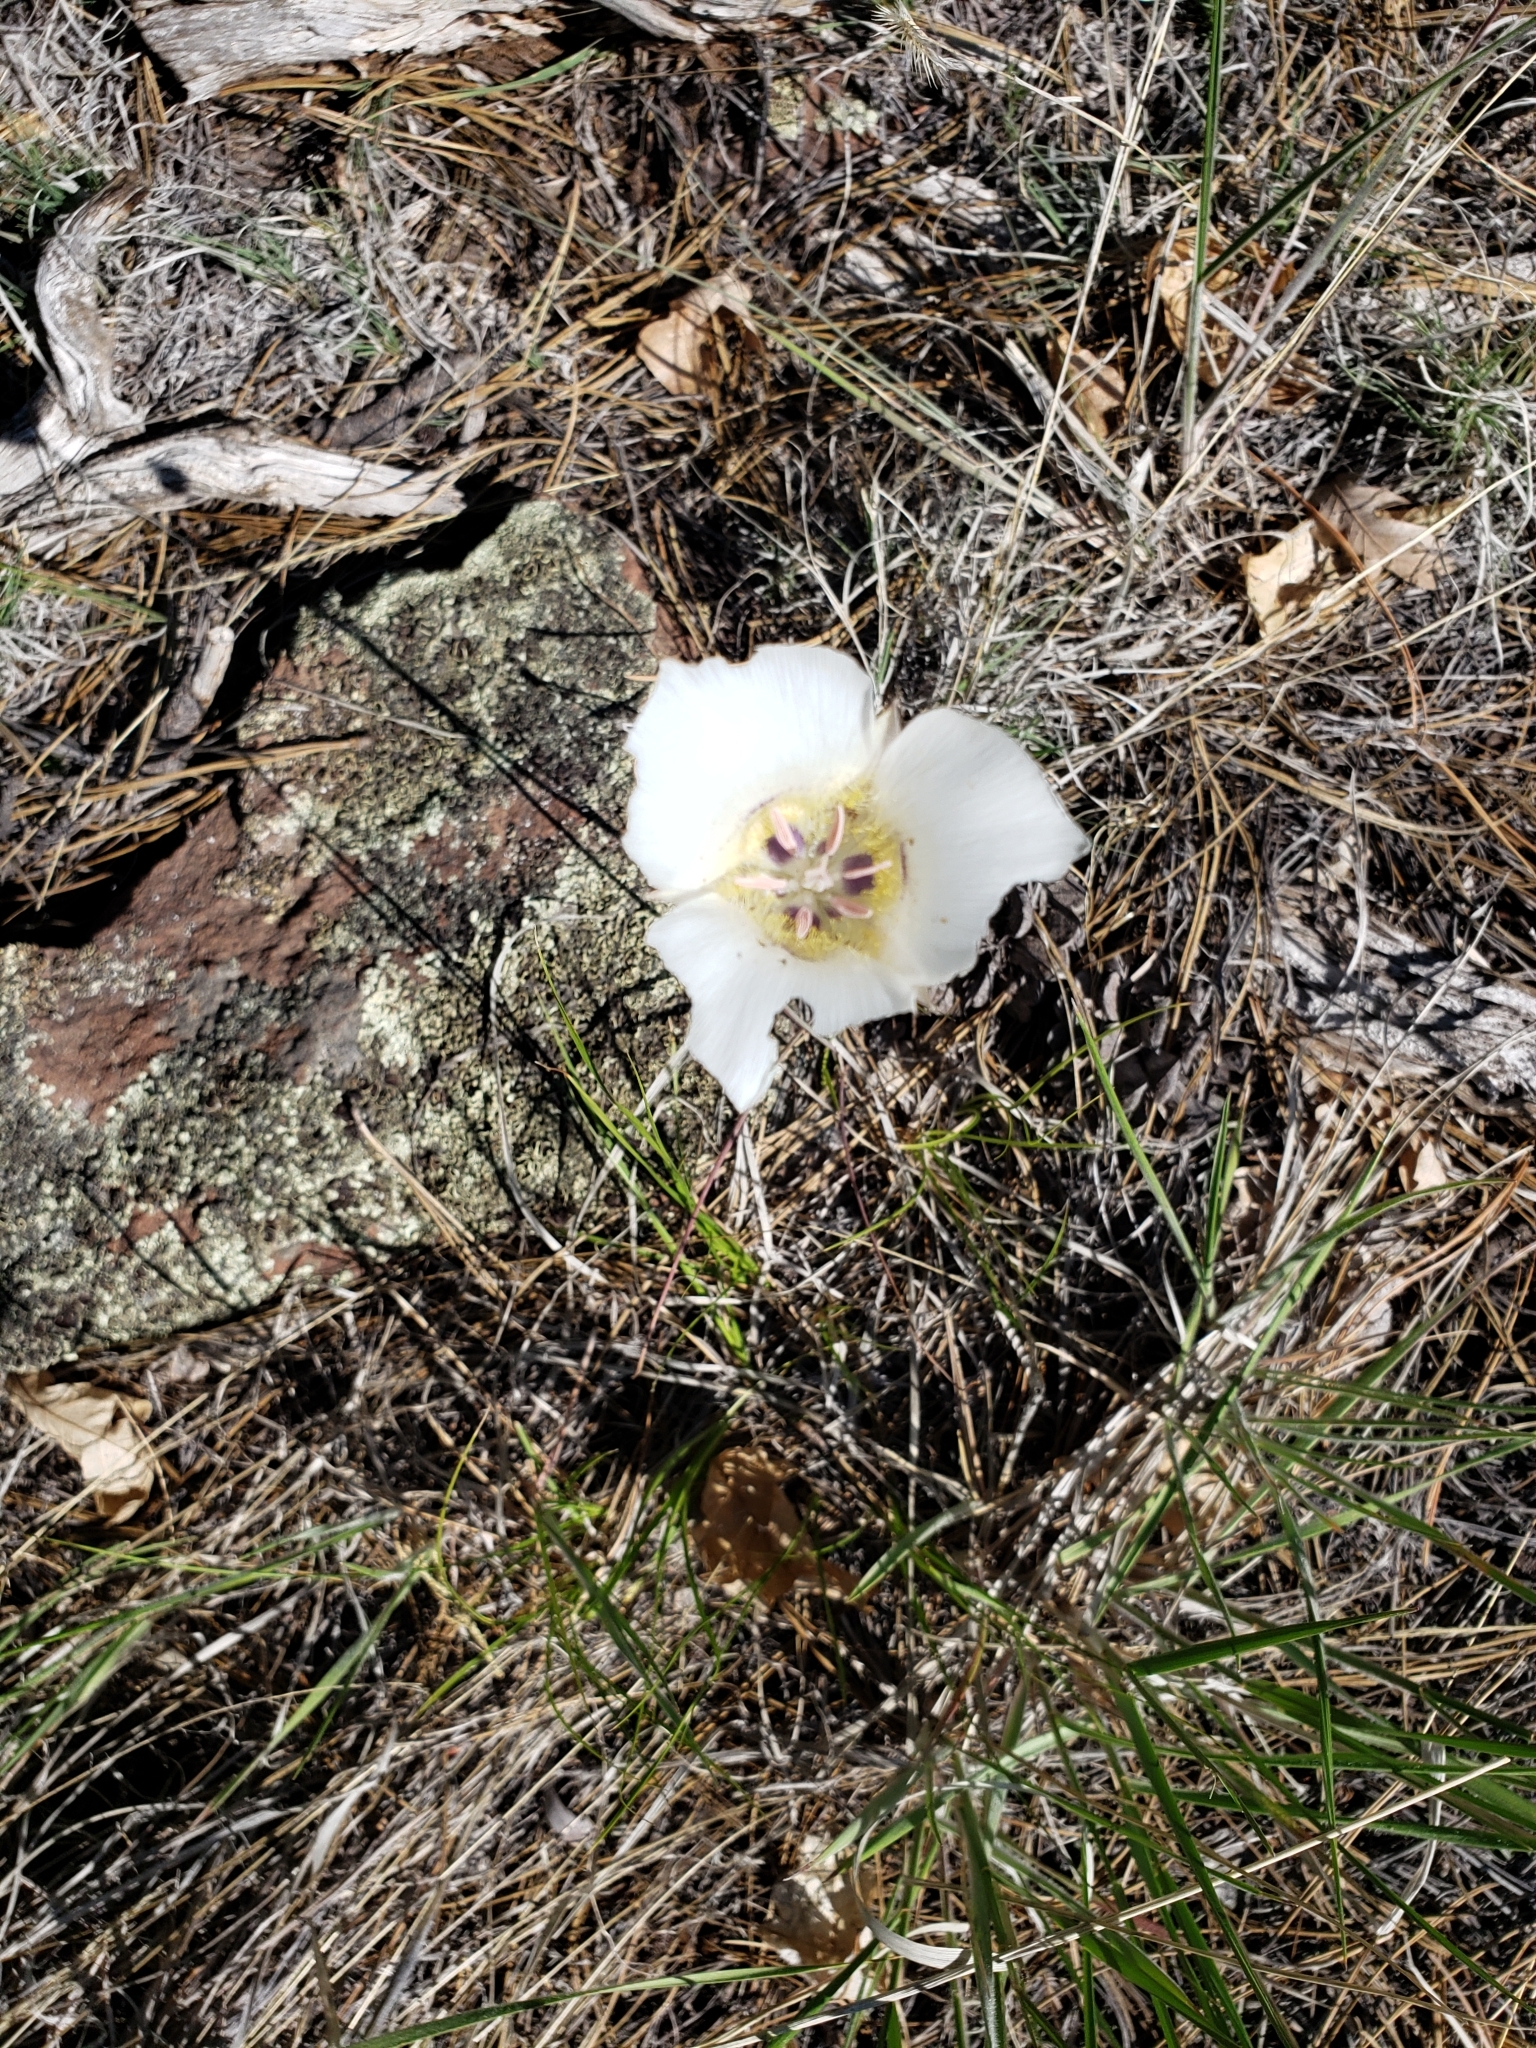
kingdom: Plantae
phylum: Tracheophyta
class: Liliopsida
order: Liliales
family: Liliaceae
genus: Calochortus
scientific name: Calochortus ambiguus
